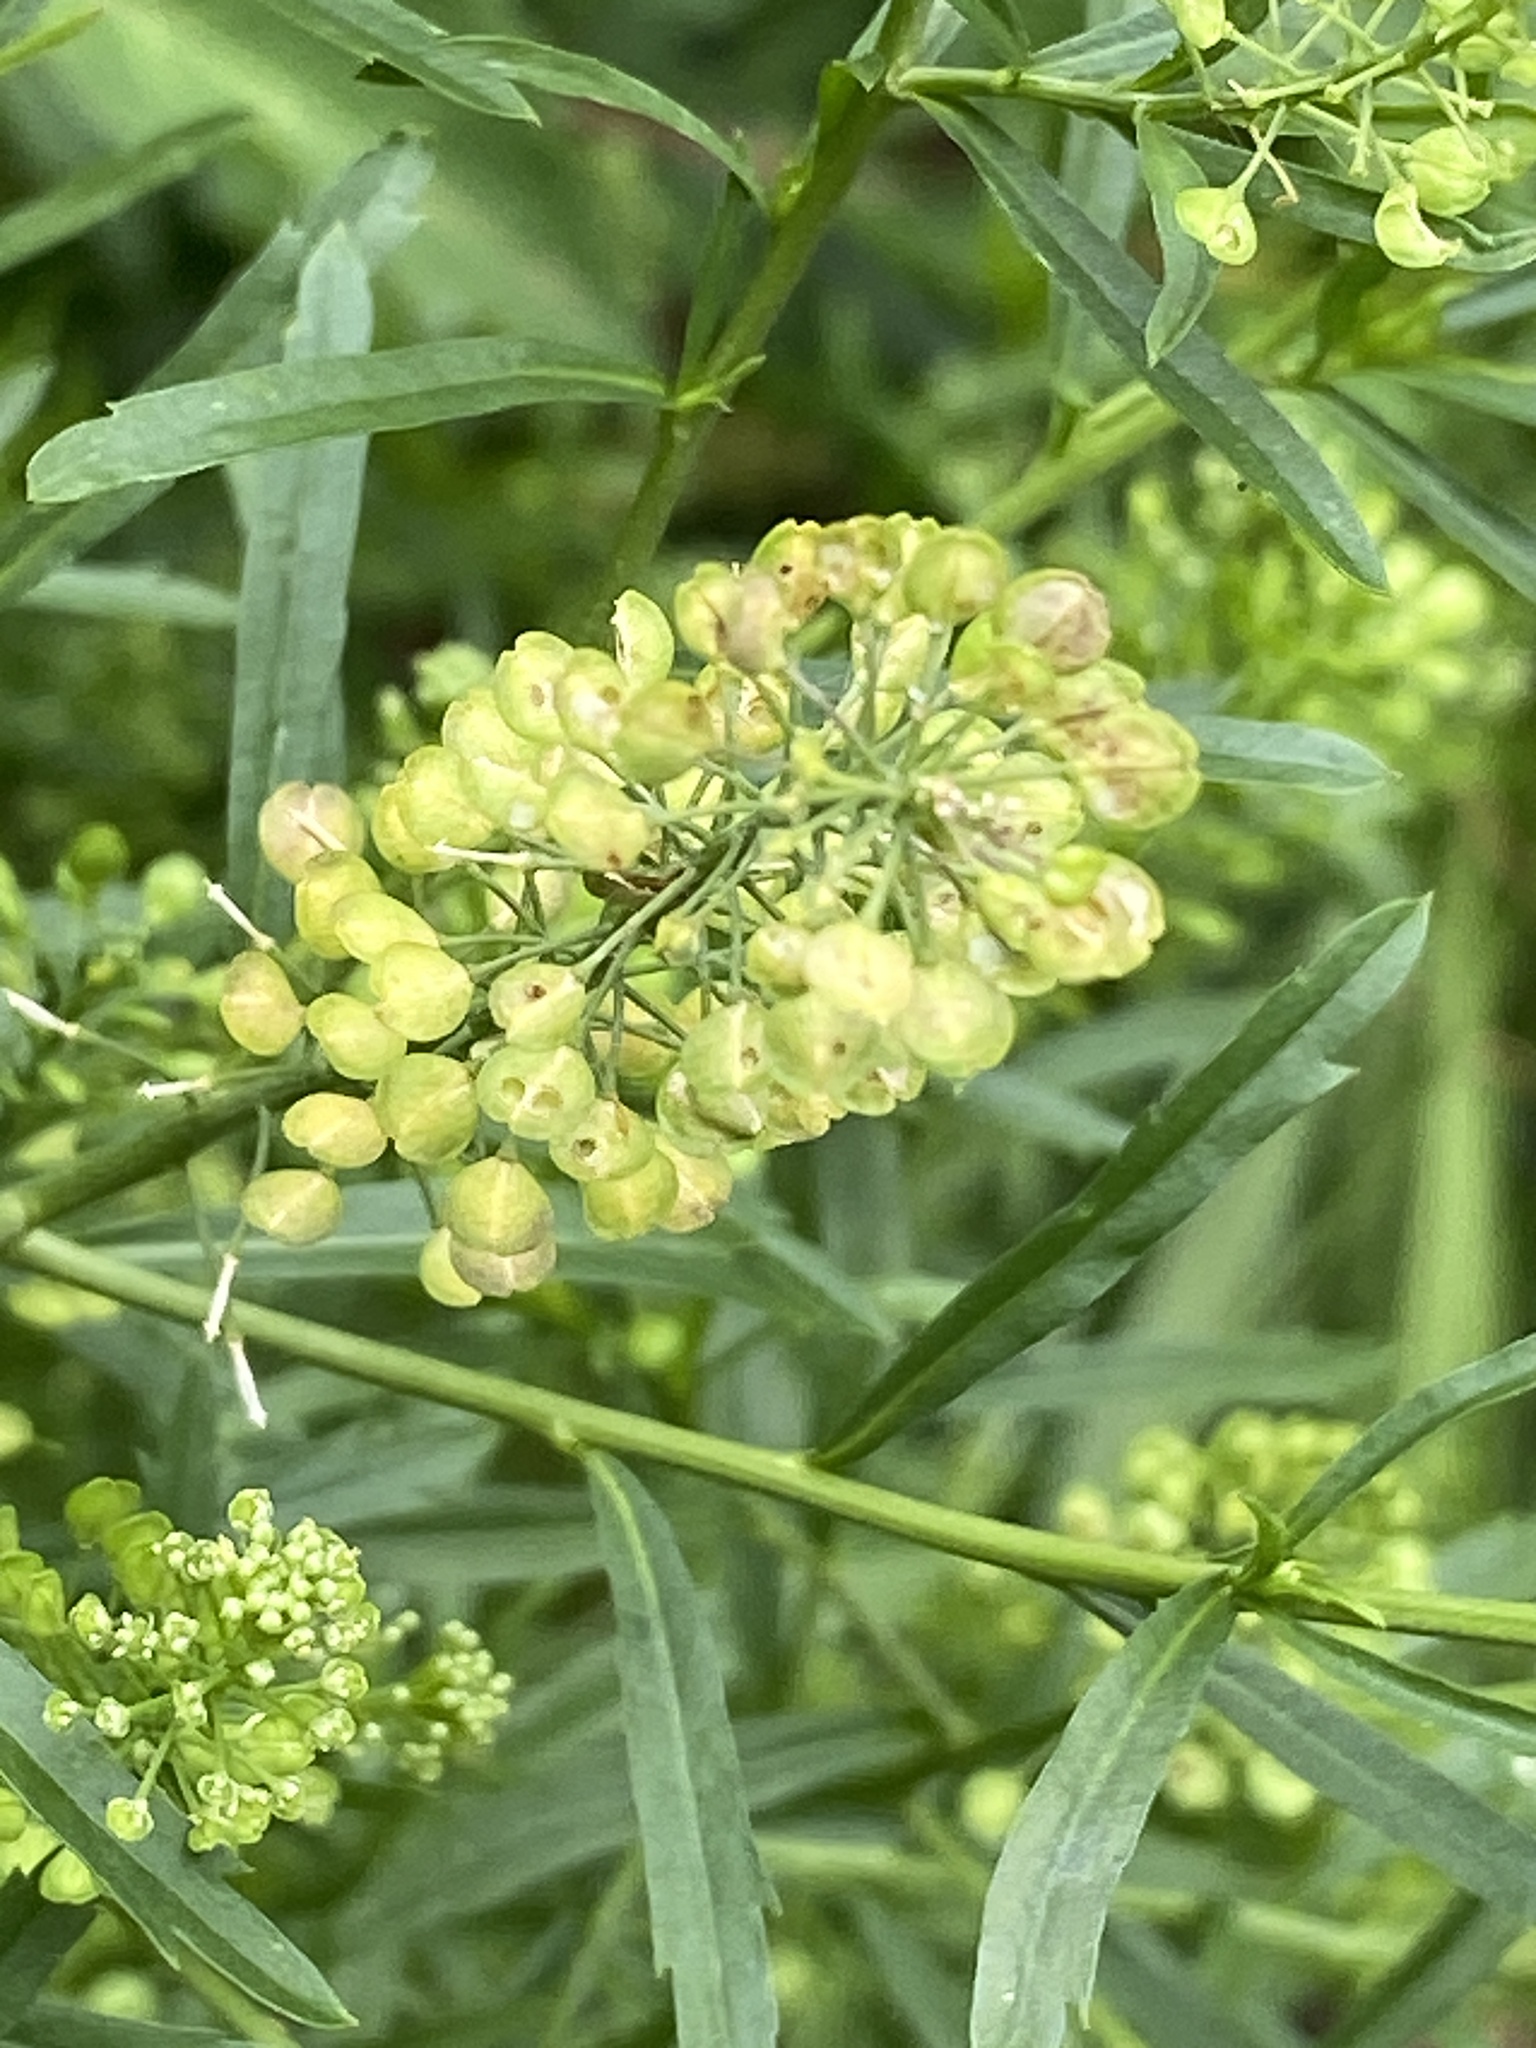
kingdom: Plantae
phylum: Tracheophyta
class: Magnoliopsida
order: Brassicales
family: Brassicaceae
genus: Lepidium
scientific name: Lepidium virginicum
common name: Least pepperwort
